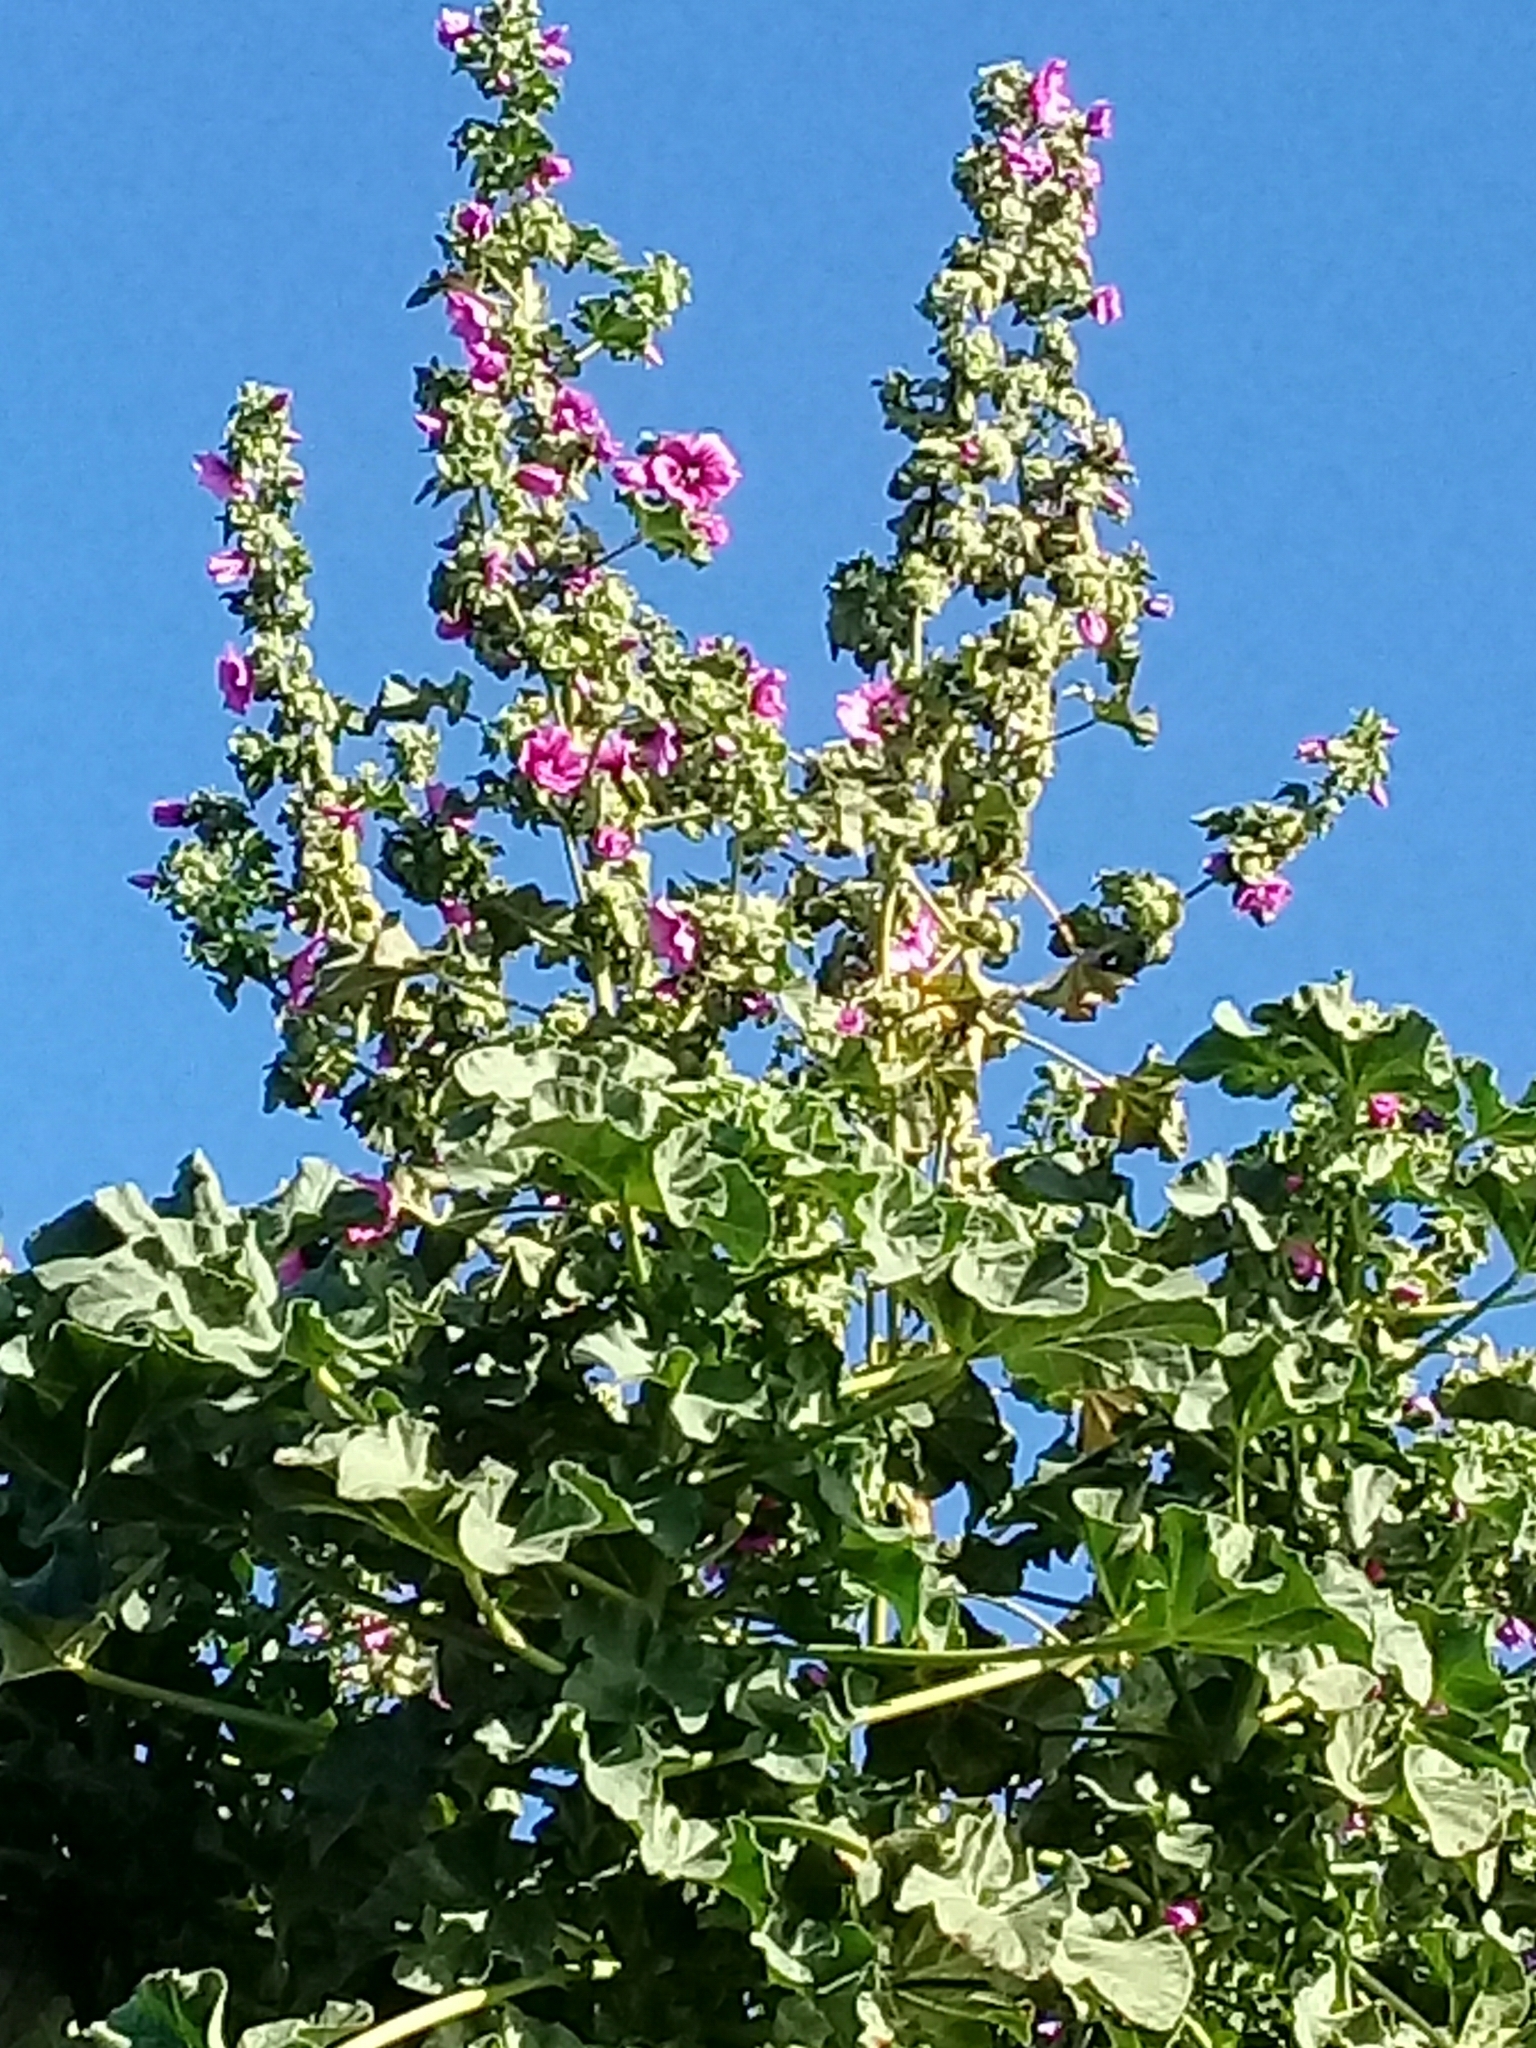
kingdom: Plantae
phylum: Tracheophyta
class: Magnoliopsida
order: Malvales
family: Malvaceae
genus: Malva
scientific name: Malva arborea
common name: Tree mallow
